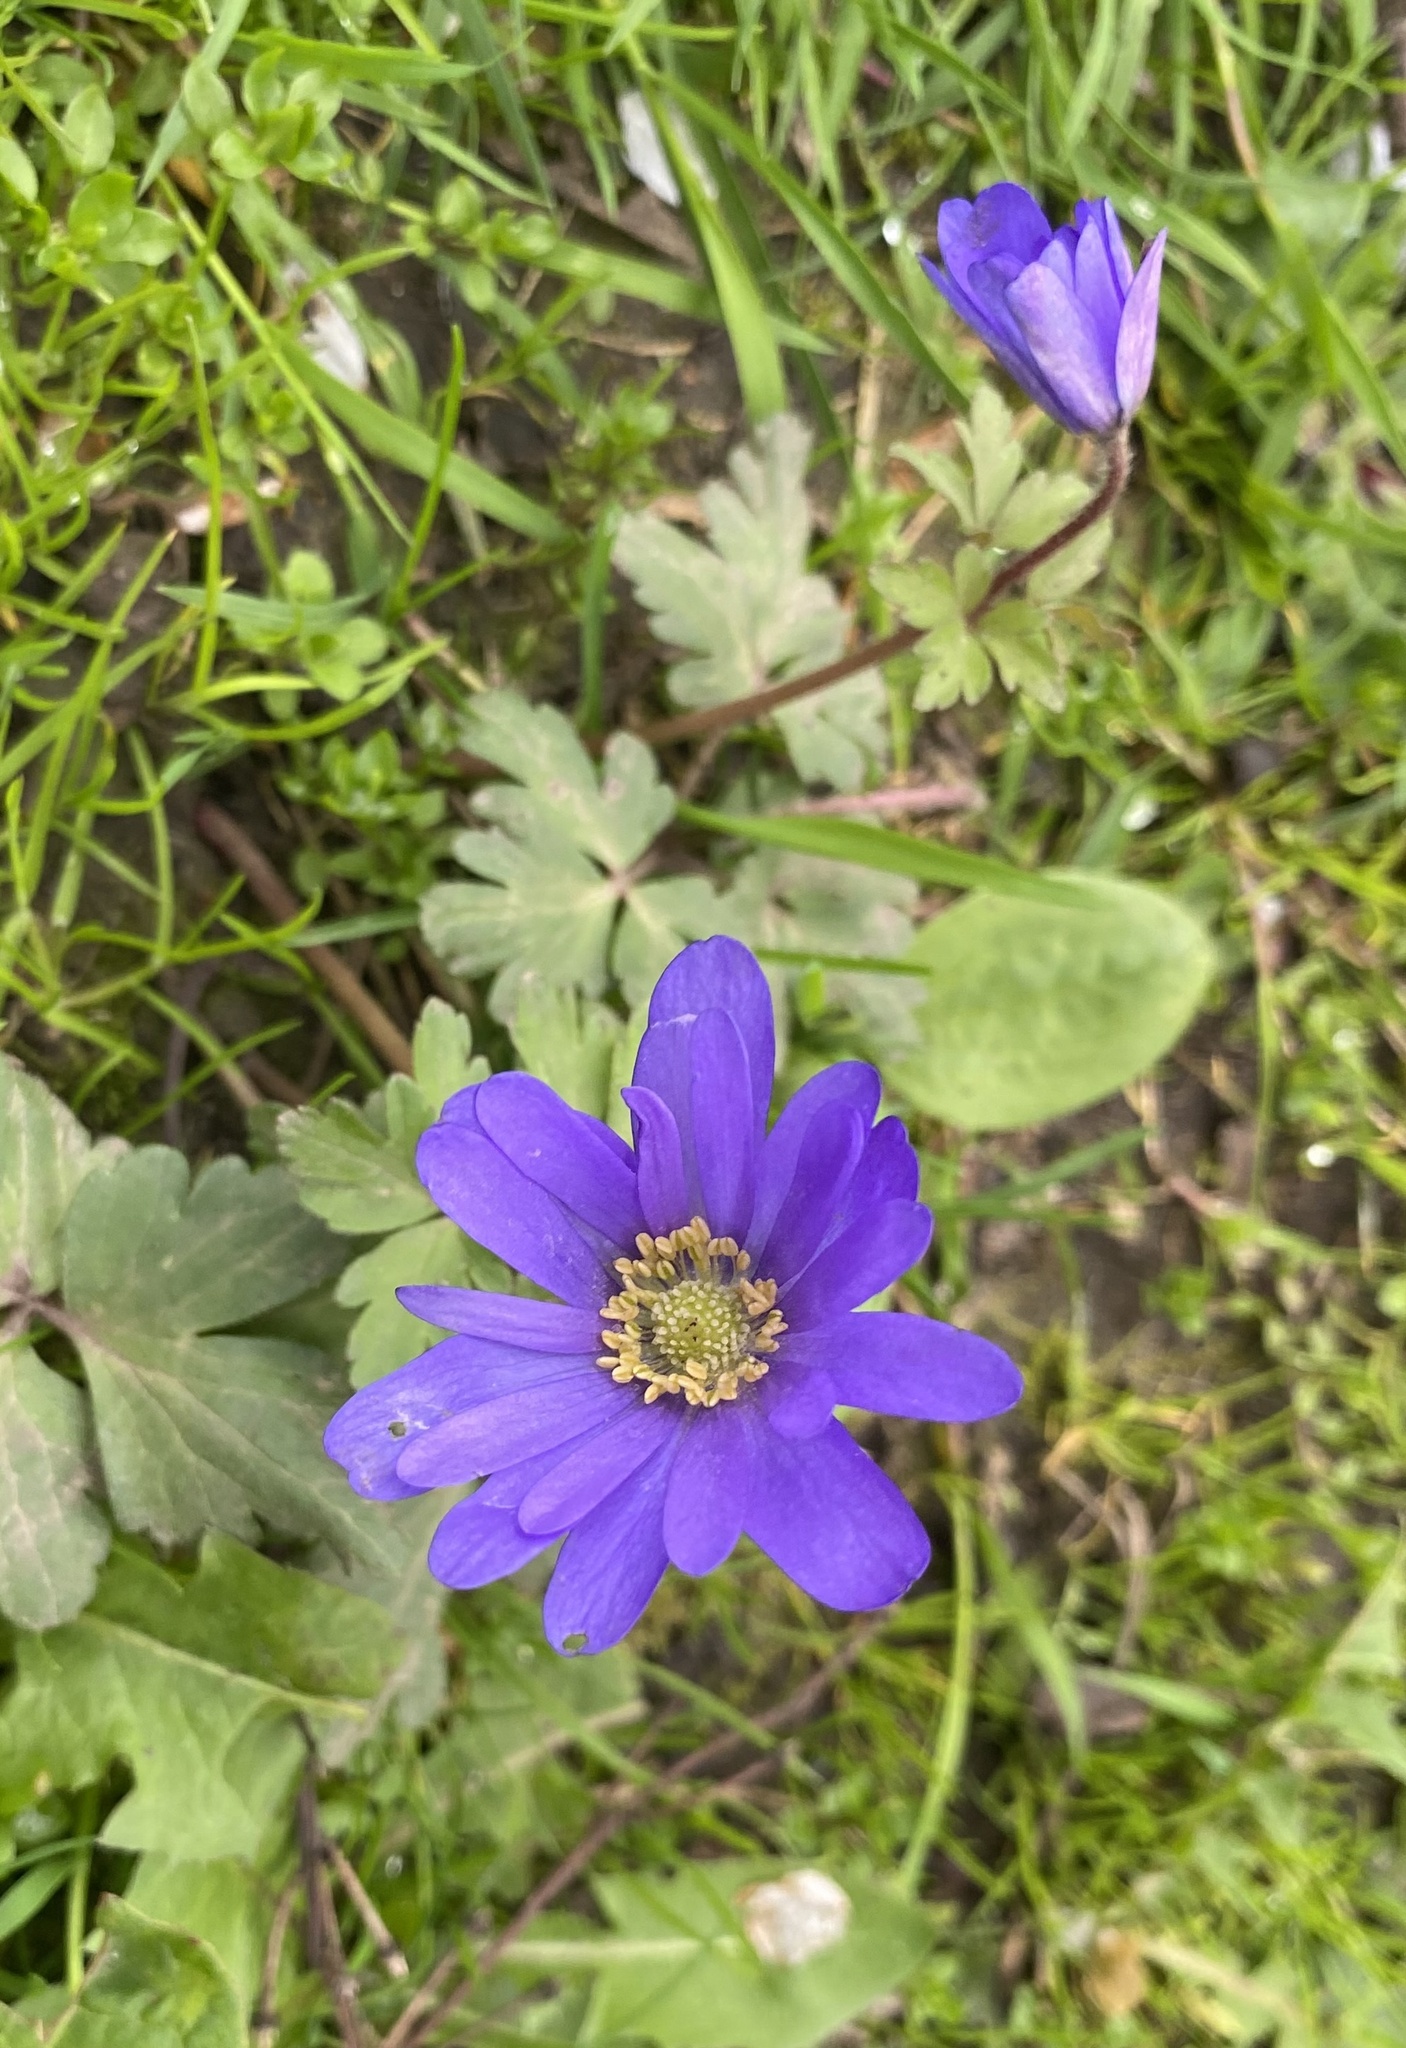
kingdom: Plantae
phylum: Tracheophyta
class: Magnoliopsida
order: Ranunculales
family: Ranunculaceae
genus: Anemone
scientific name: Anemone blanda
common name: Balkan anemone
